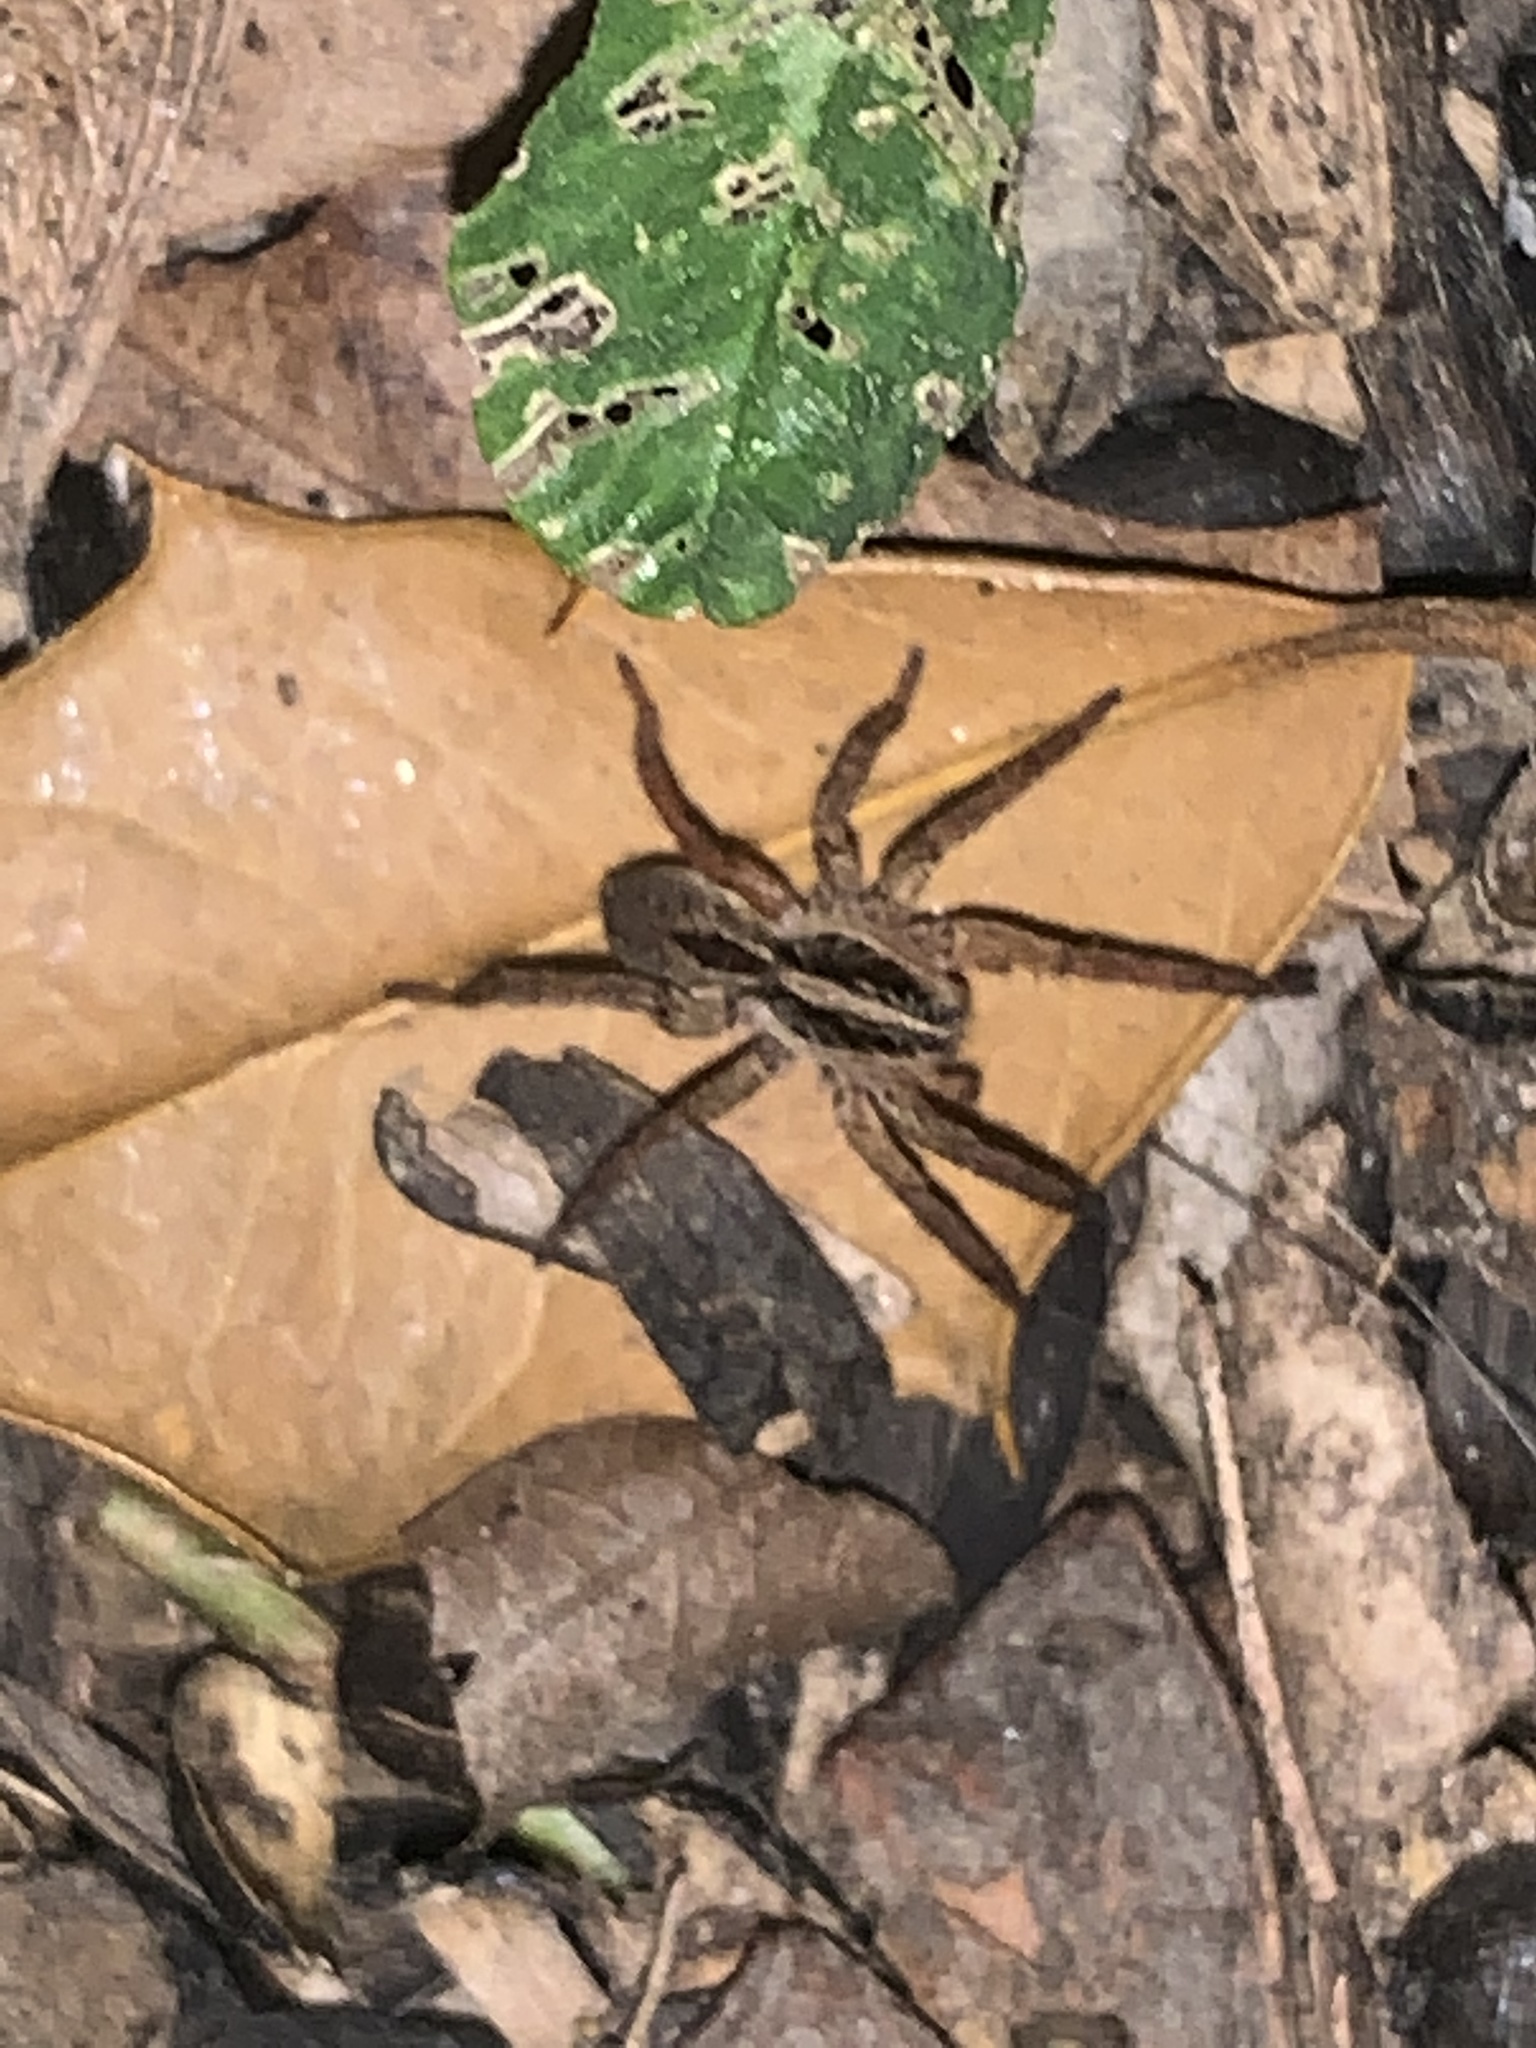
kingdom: Animalia
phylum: Arthropoda
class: Arachnida
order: Araneae
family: Lycosidae
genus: Tigrosa
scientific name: Tigrosa annexa
